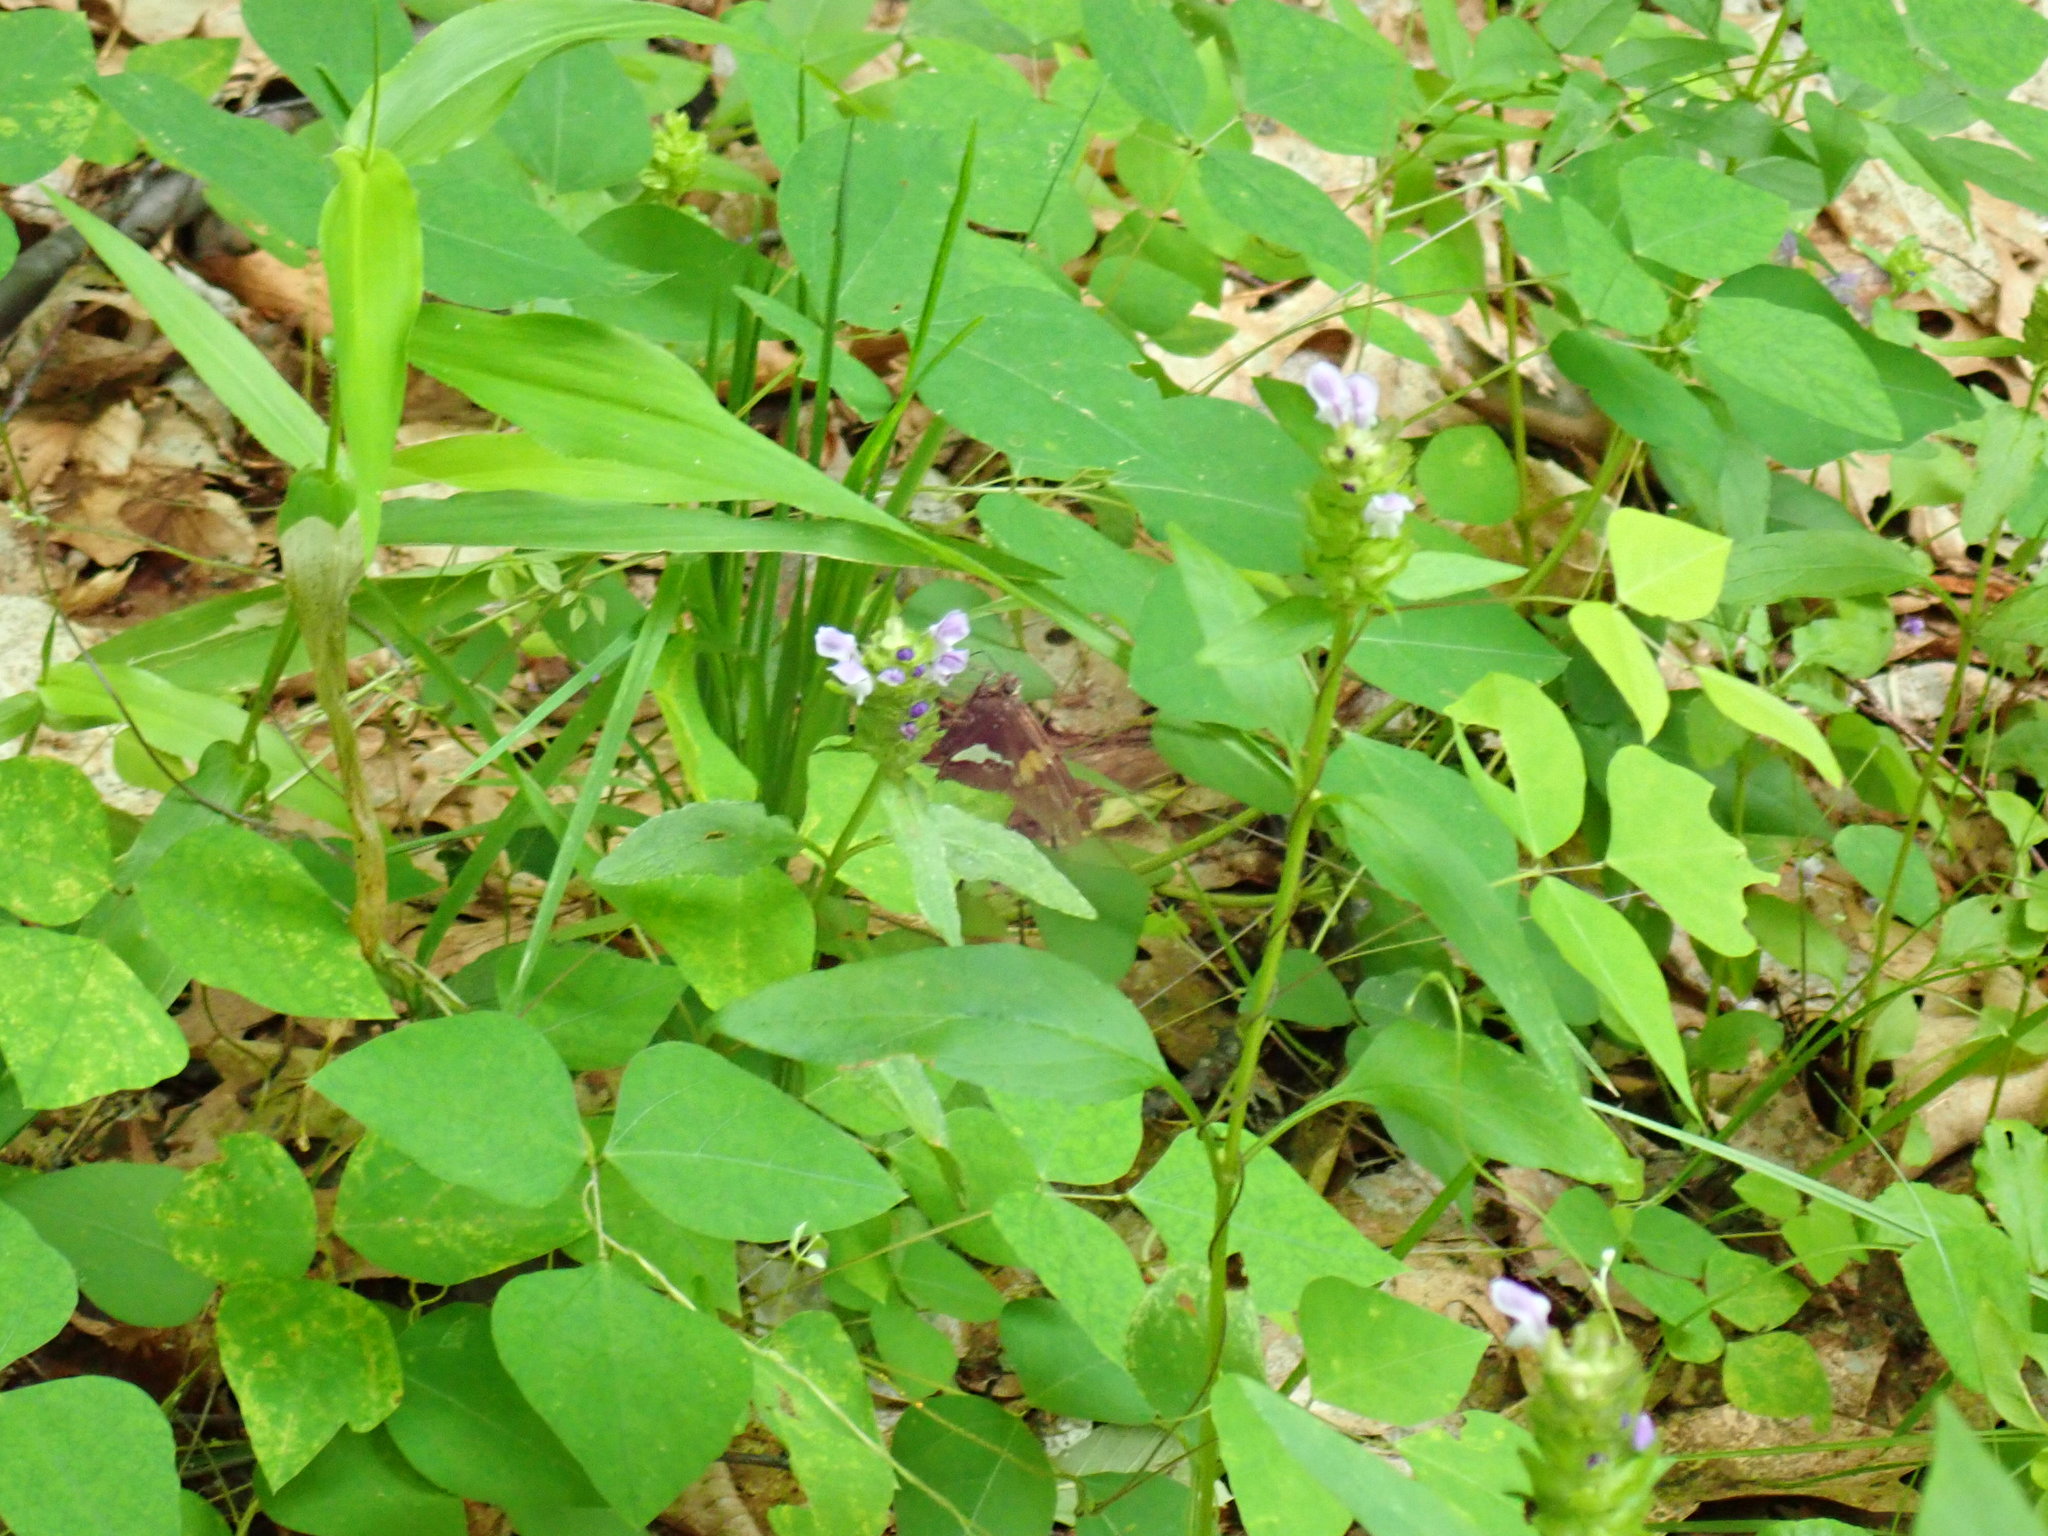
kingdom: Plantae
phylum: Tracheophyta
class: Magnoliopsida
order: Lamiales
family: Lamiaceae
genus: Prunella
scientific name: Prunella vulgaris
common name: Heal-all
